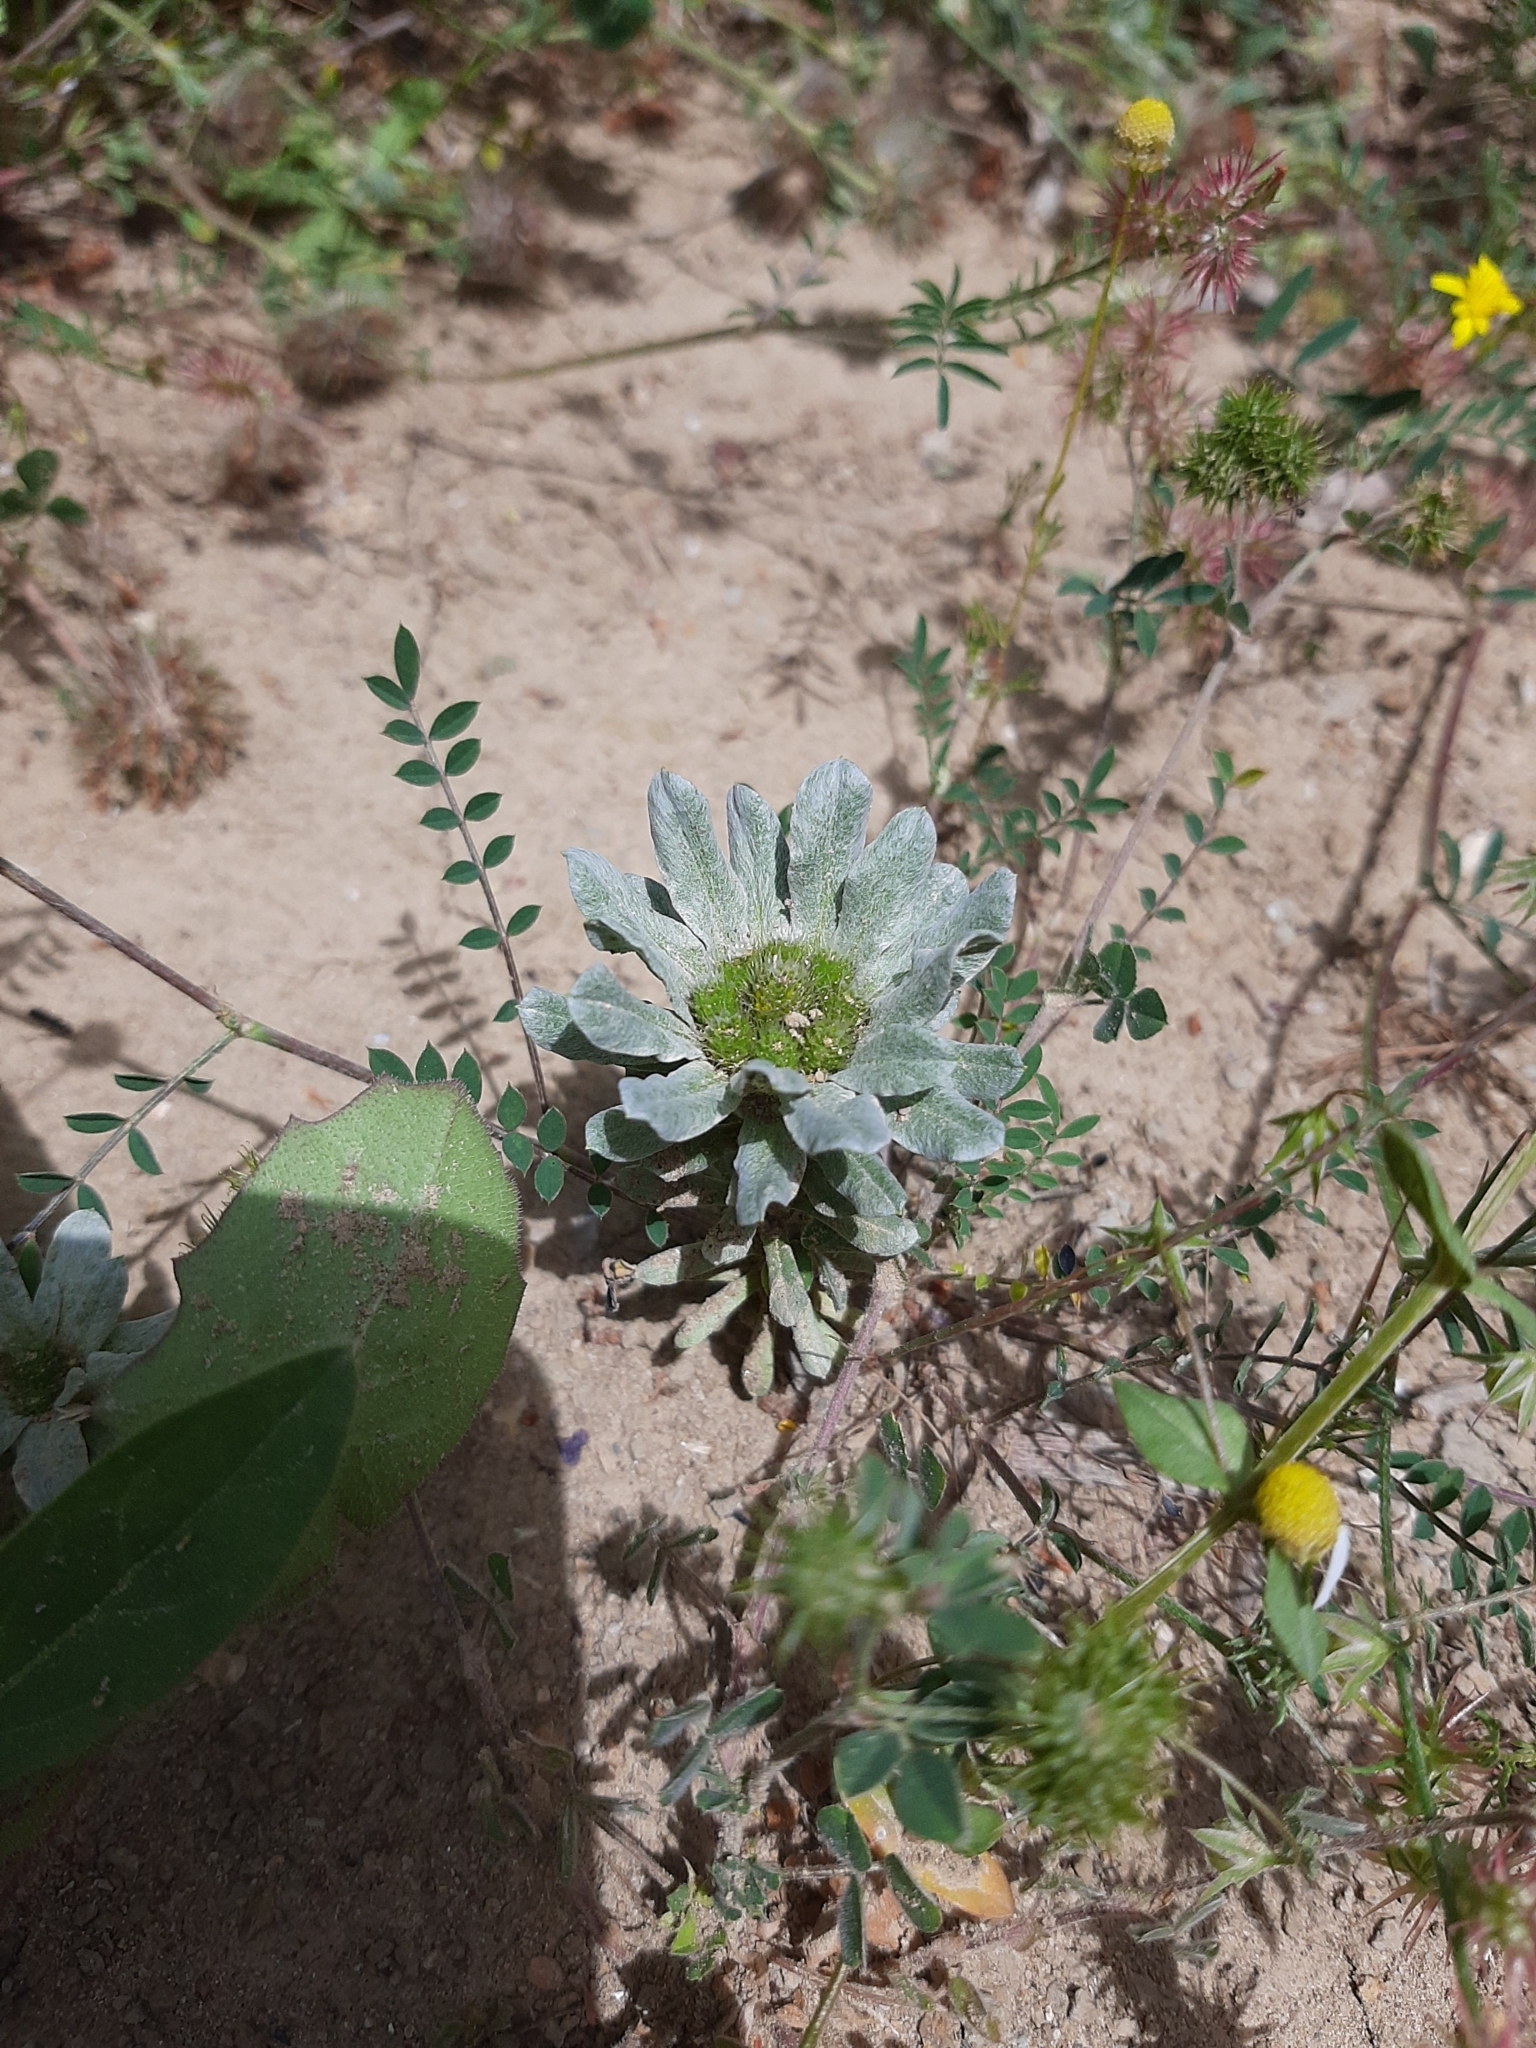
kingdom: Plantae
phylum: Tracheophyta
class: Magnoliopsida
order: Asterales
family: Asteraceae
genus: Filago
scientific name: Filago pygmaea
